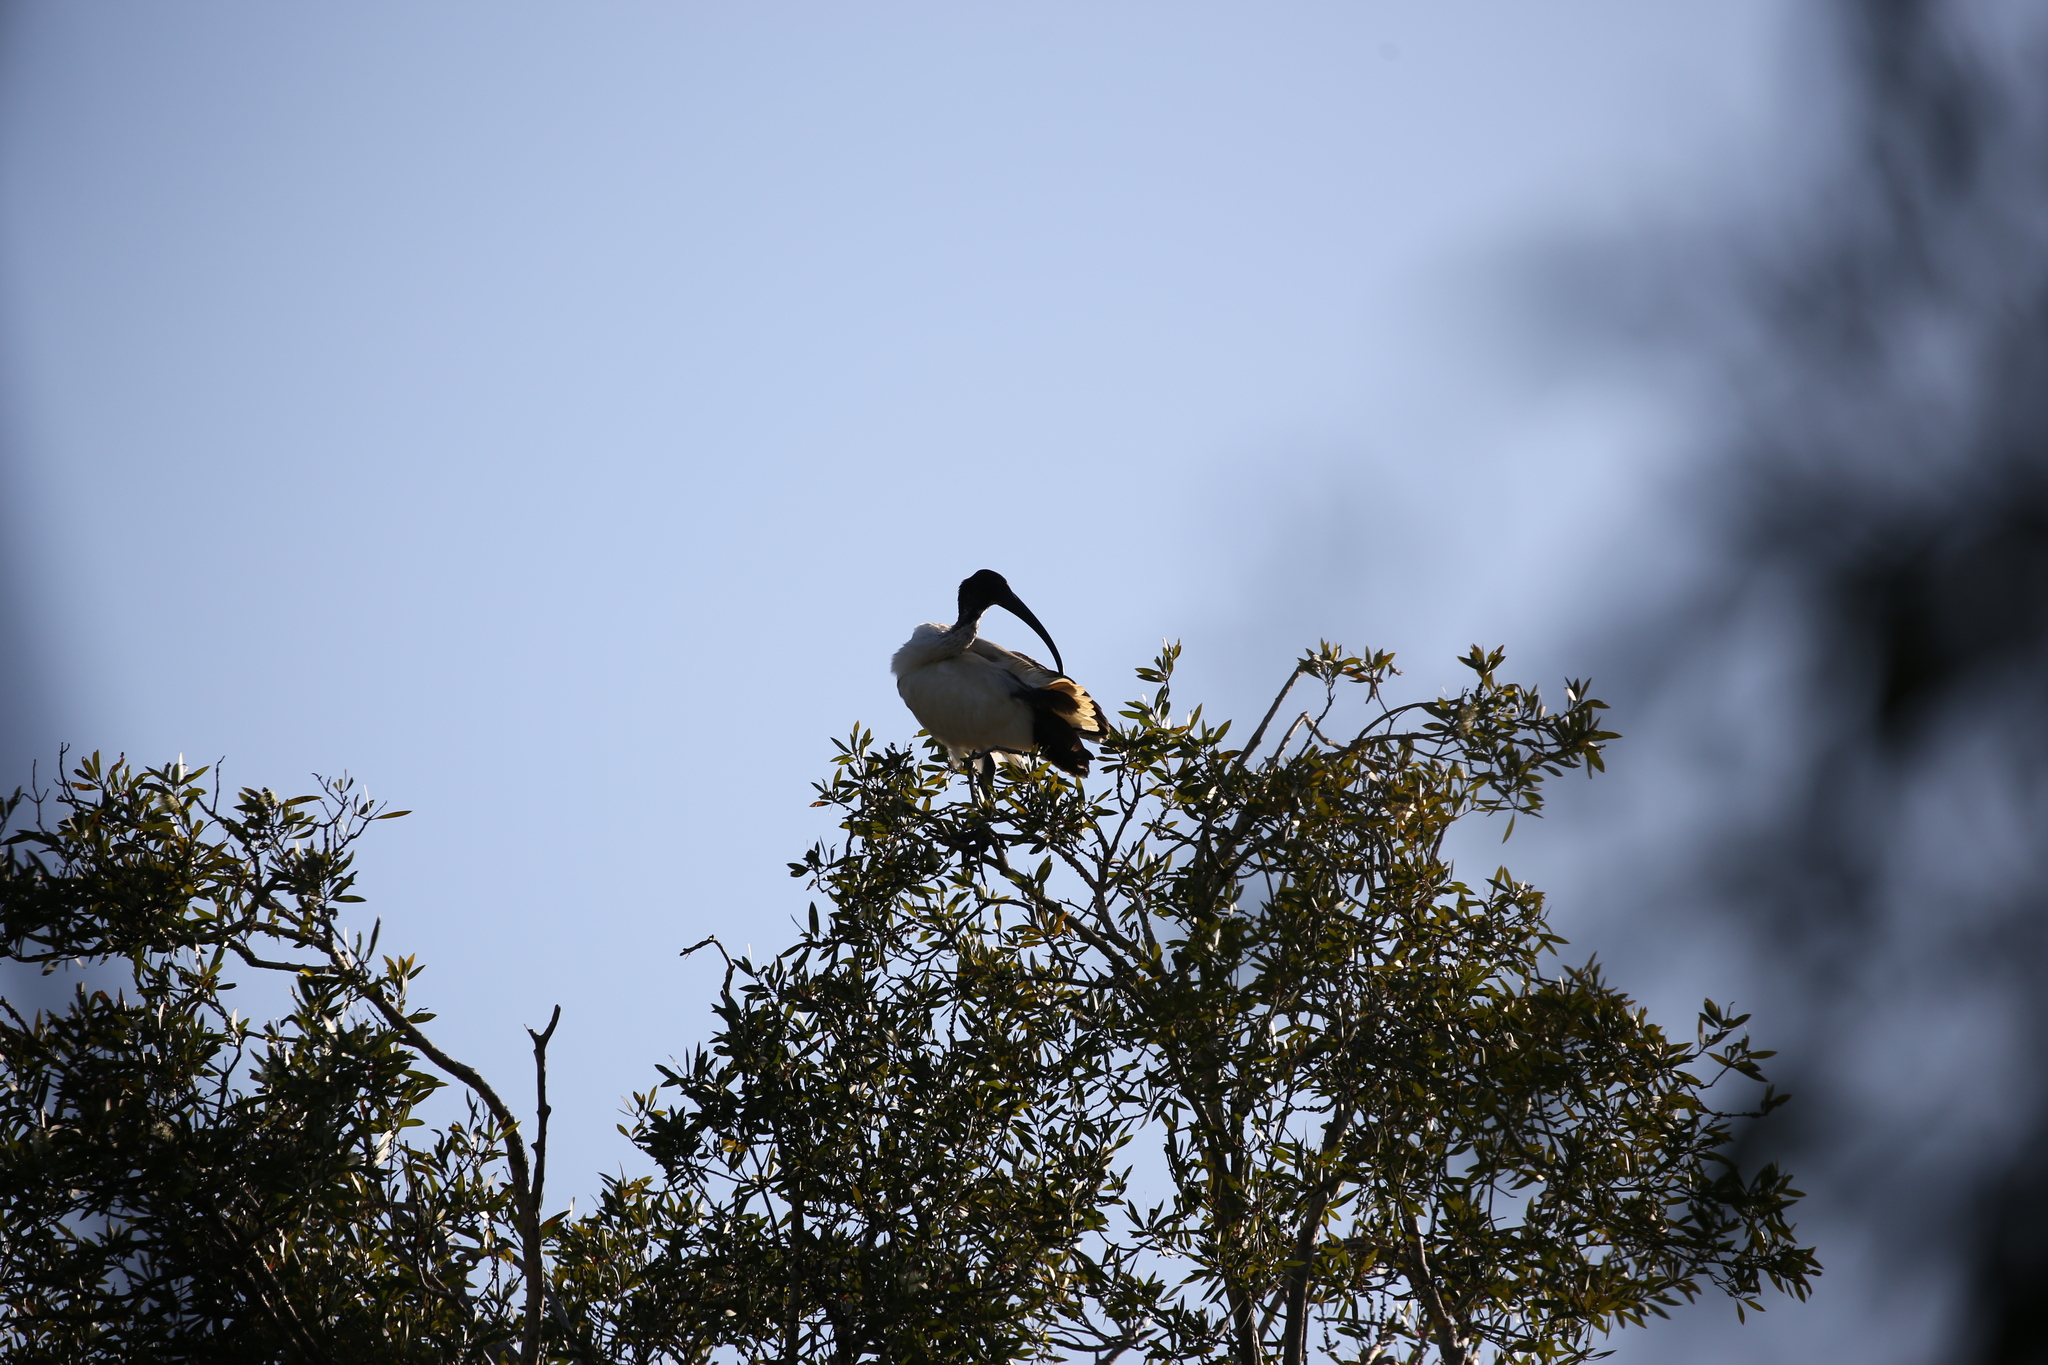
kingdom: Animalia
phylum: Chordata
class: Aves
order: Pelecaniformes
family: Threskiornithidae
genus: Threskiornis
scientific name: Threskiornis molucca
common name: Australian white ibis
